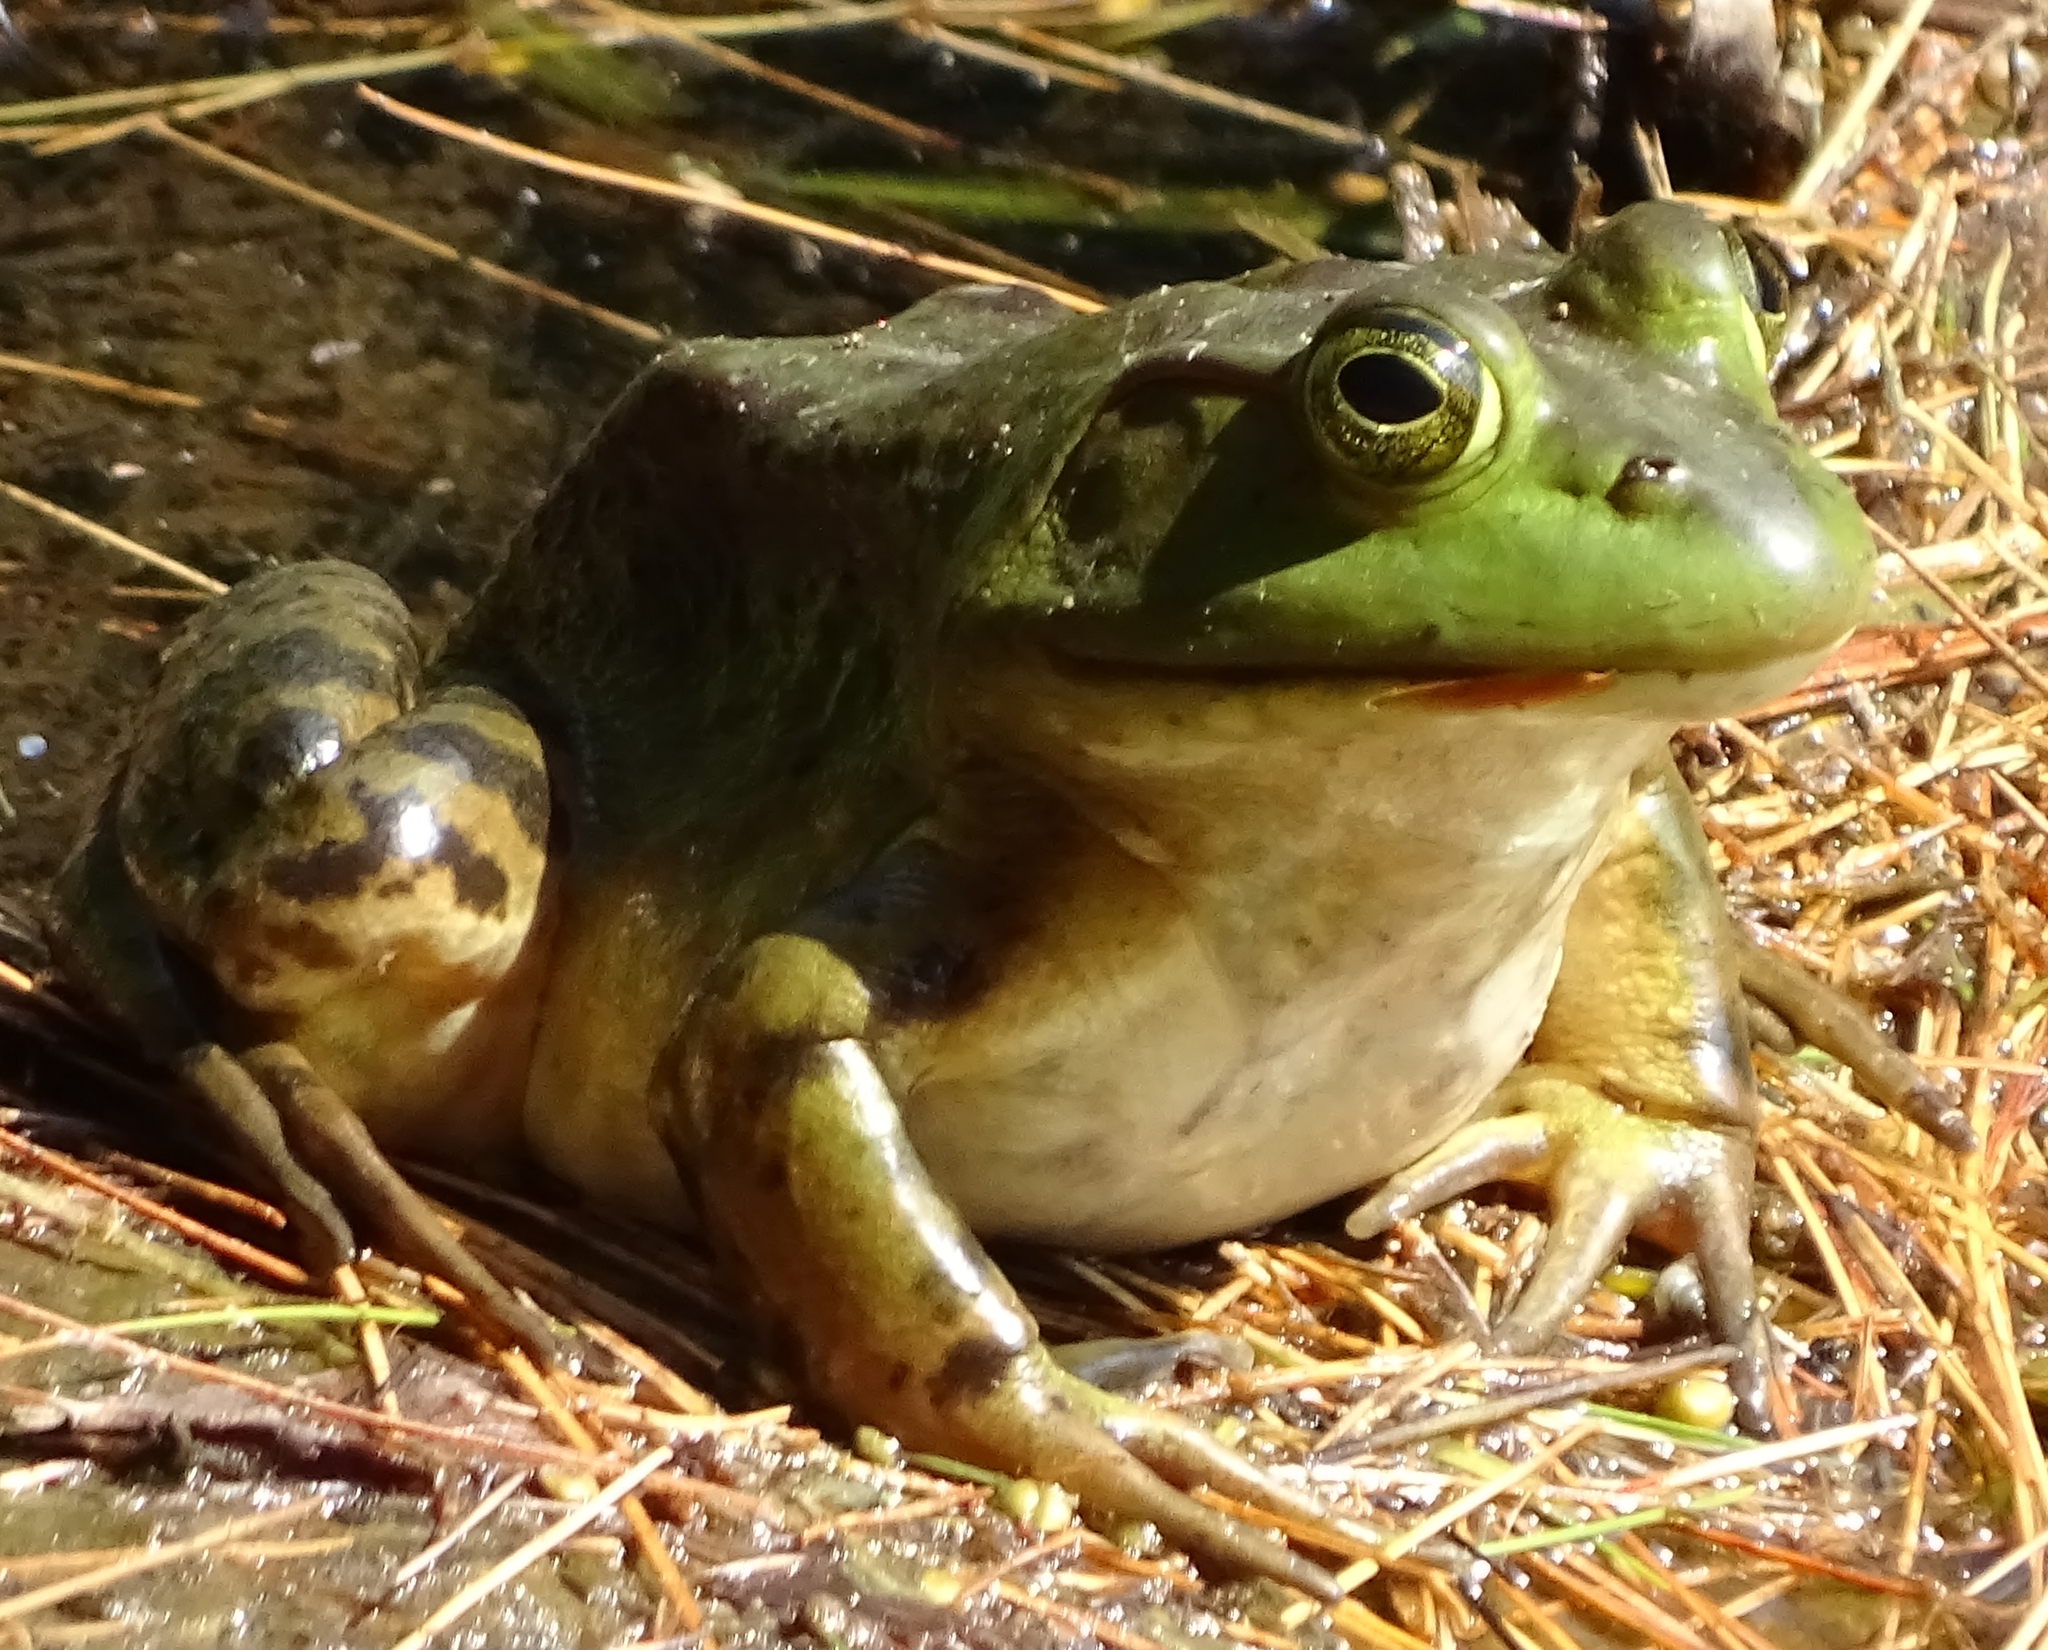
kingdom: Animalia
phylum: Chordata
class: Amphibia
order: Anura
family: Ranidae
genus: Lithobates
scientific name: Lithobates catesbeianus
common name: American bullfrog
